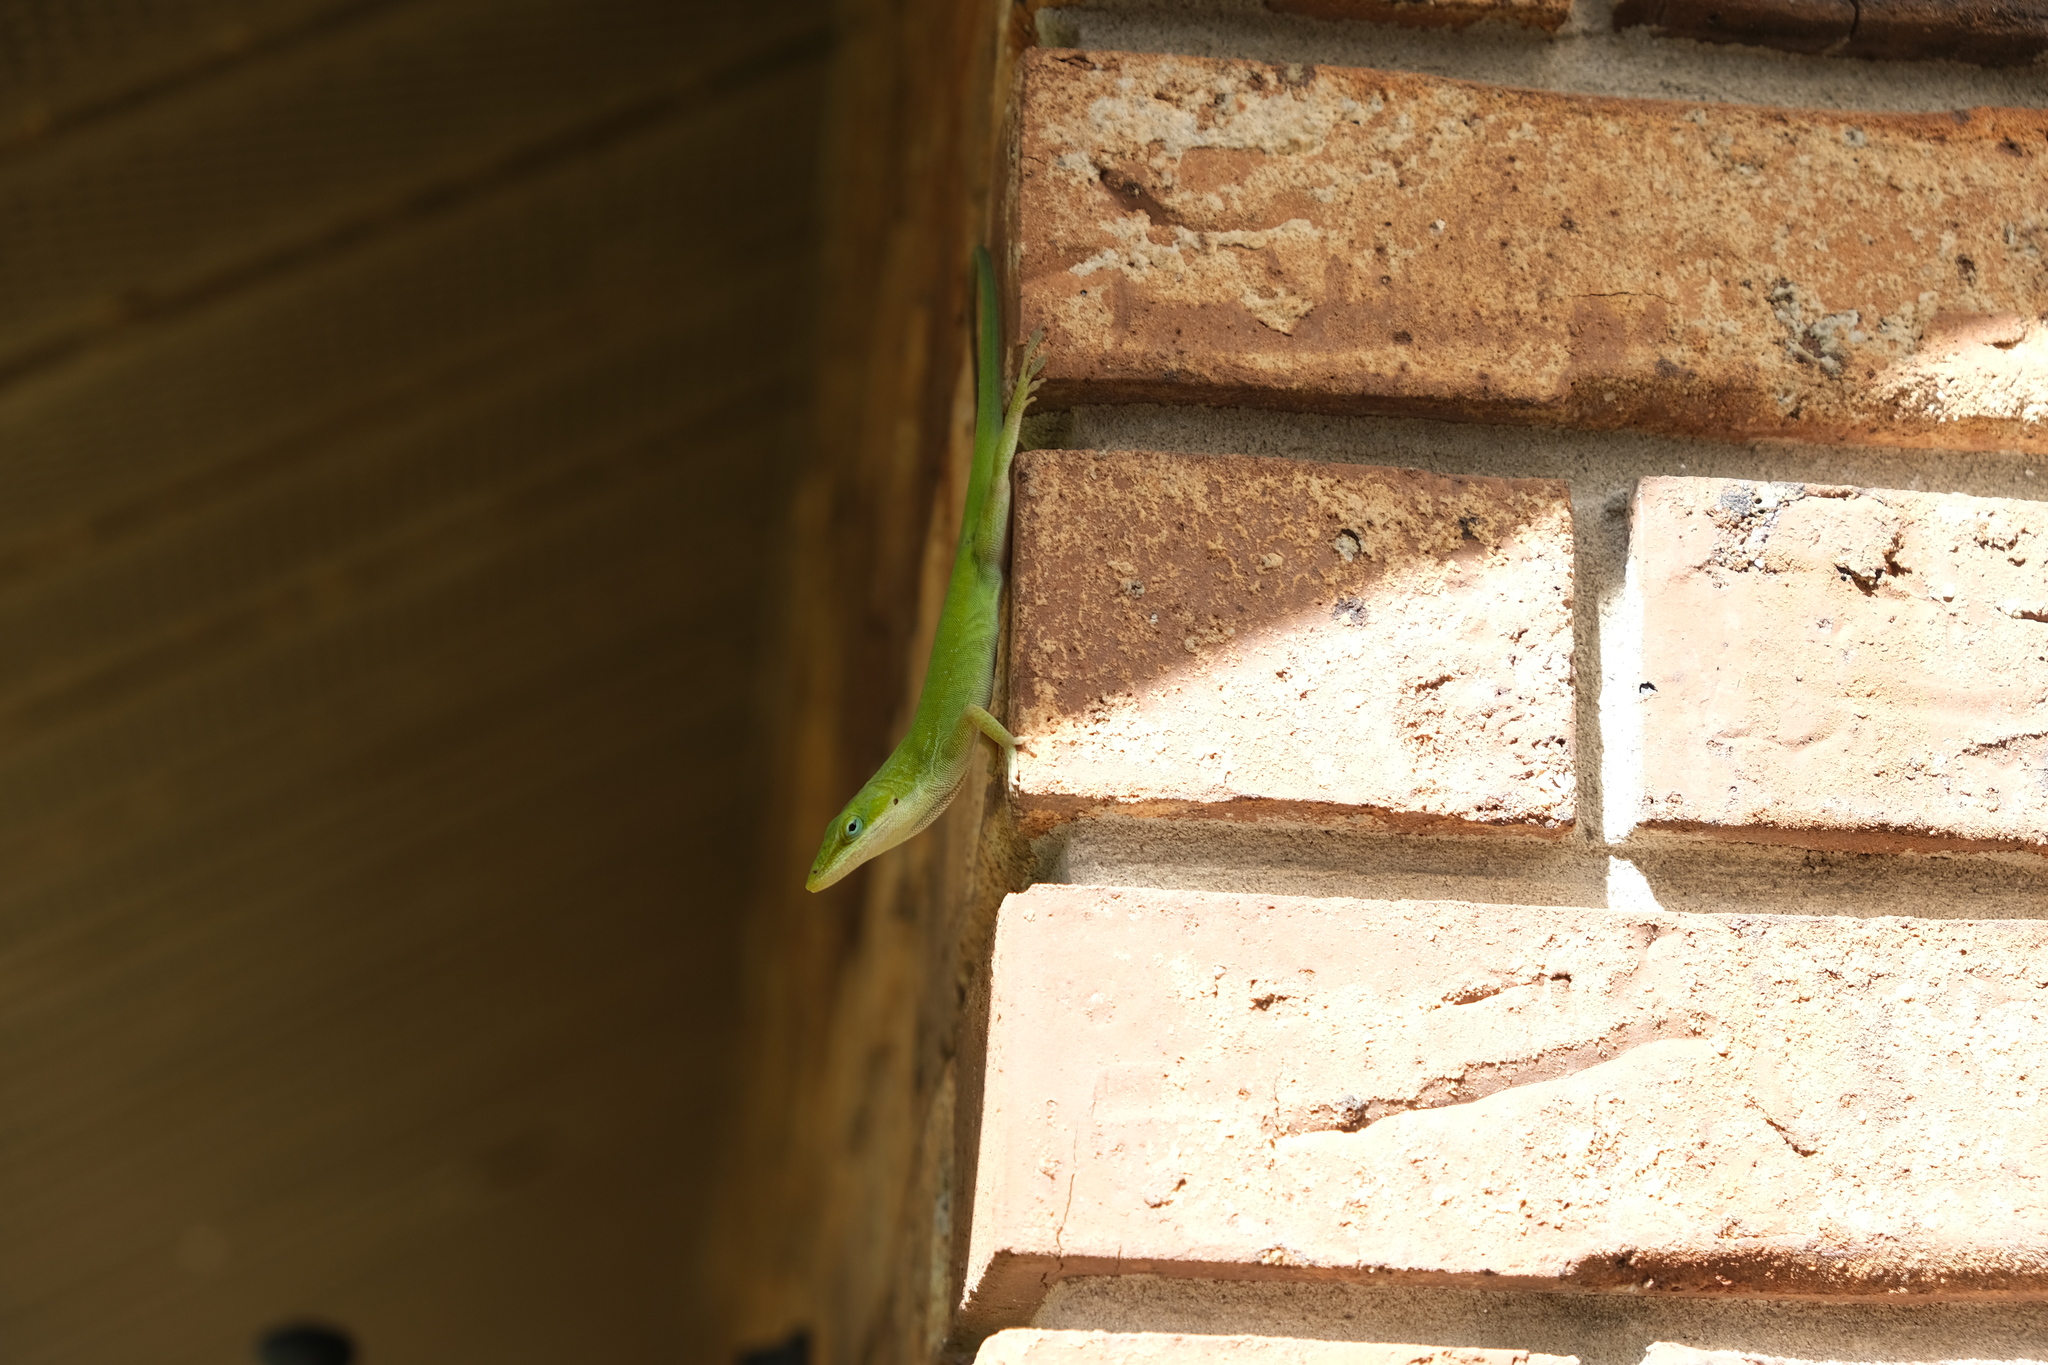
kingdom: Animalia
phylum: Chordata
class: Squamata
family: Dactyloidae
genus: Anolis
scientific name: Anolis carolinensis
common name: Green anole
